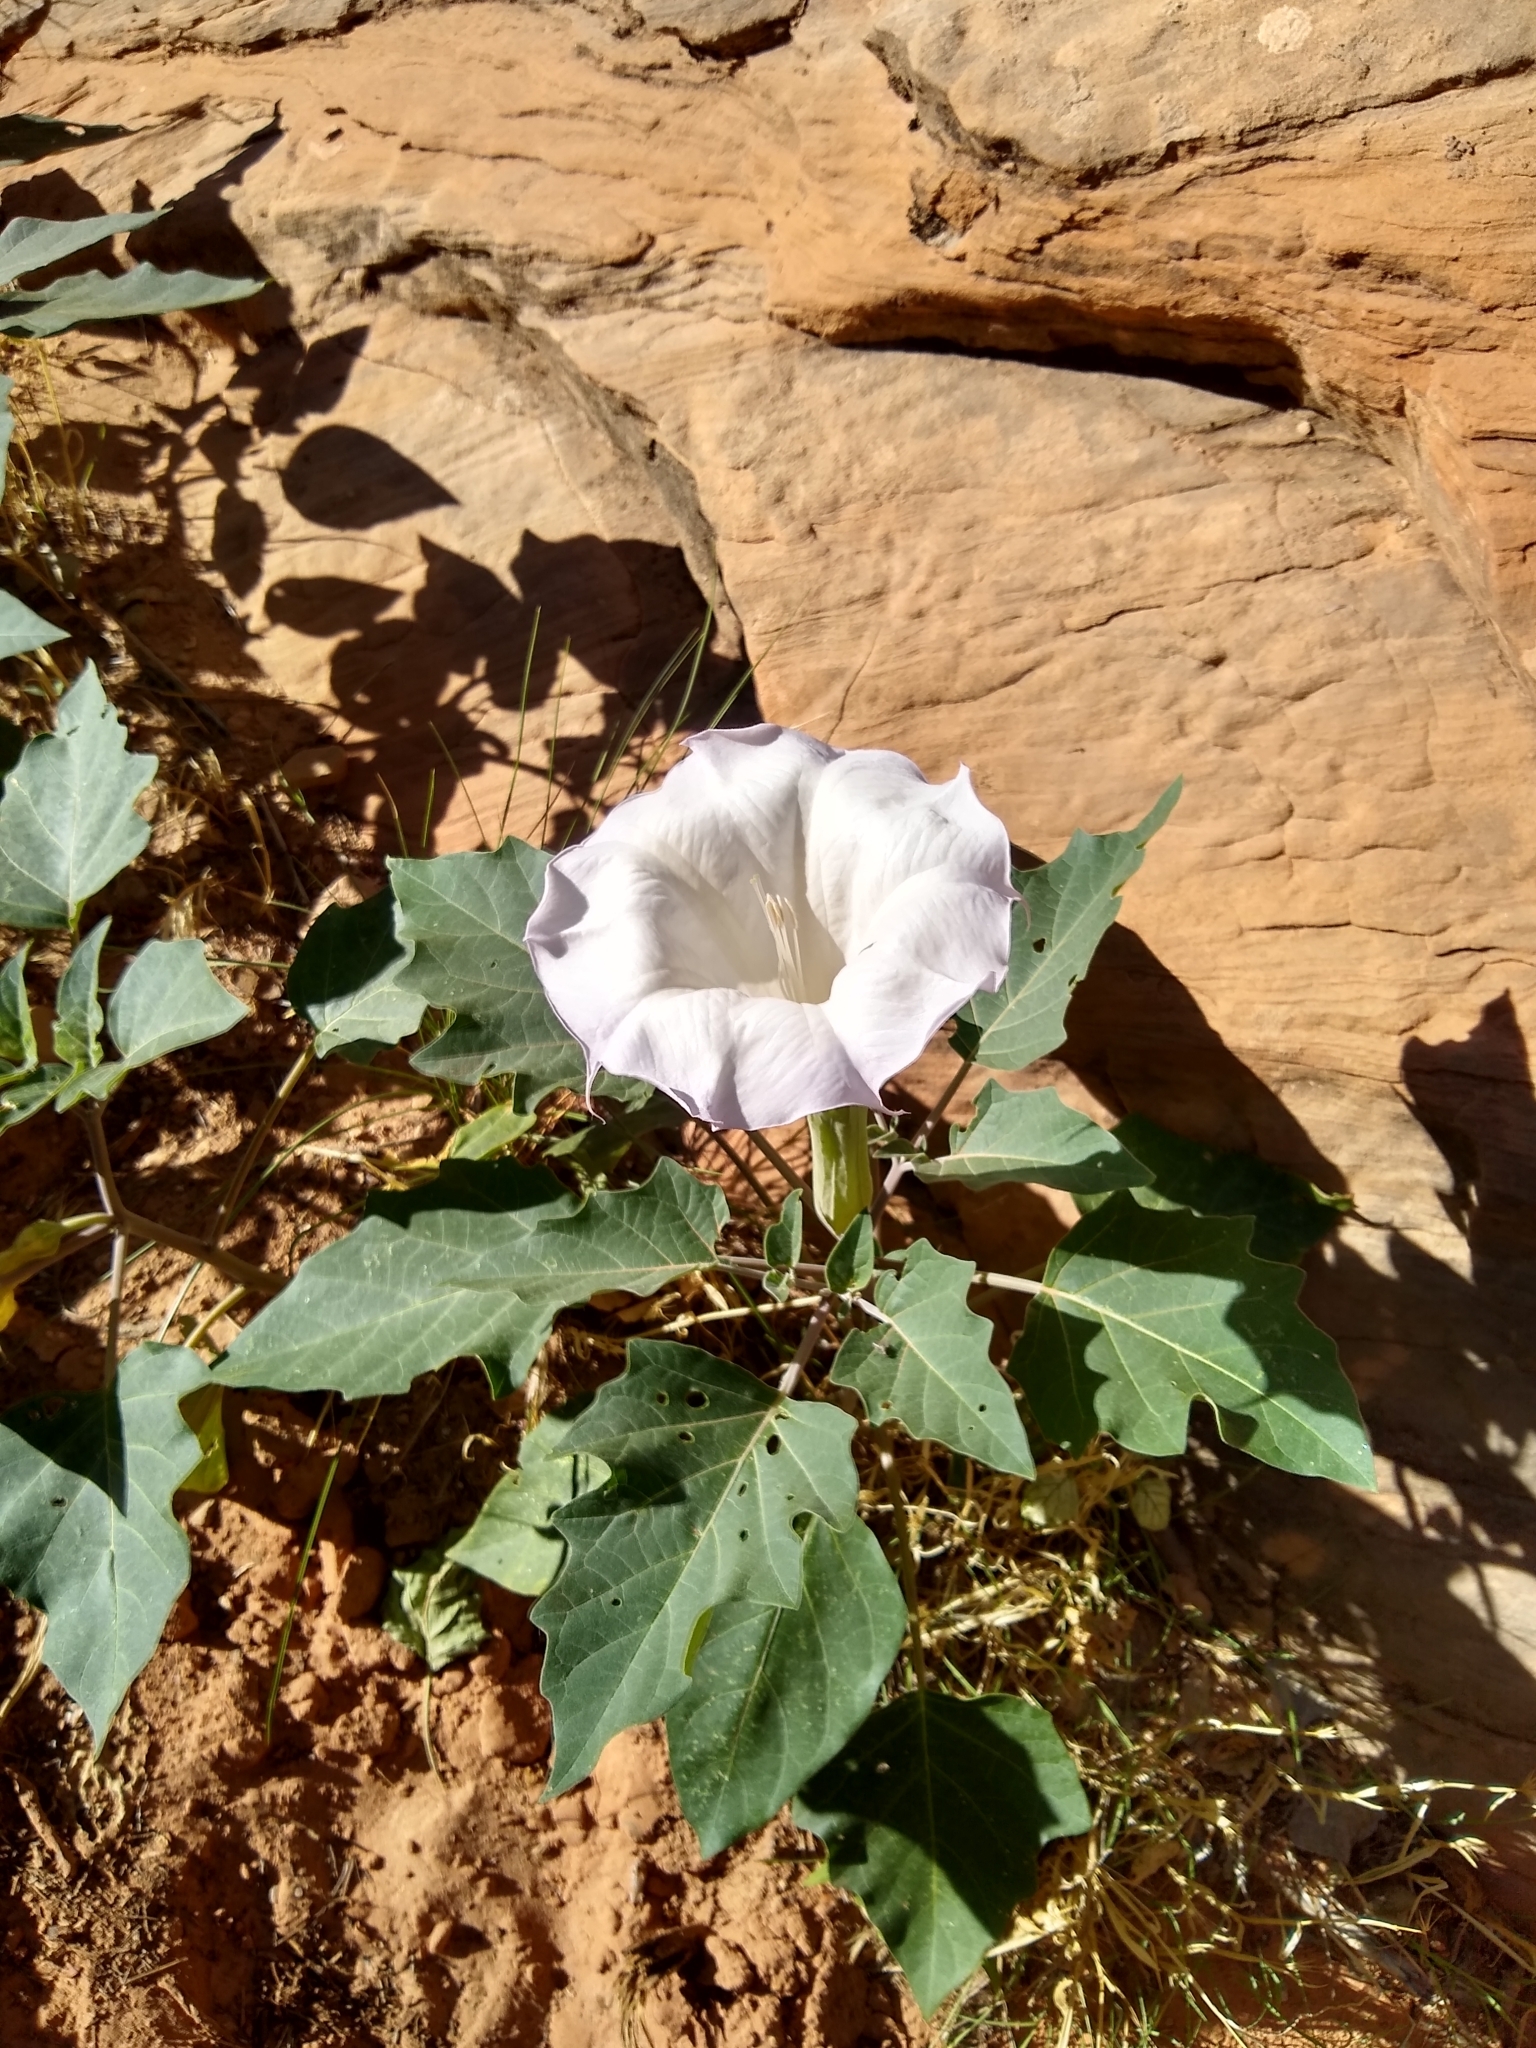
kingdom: Plantae
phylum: Tracheophyta
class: Magnoliopsida
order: Solanales
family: Solanaceae
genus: Datura
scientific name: Datura wrightii
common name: Sacred thorn-apple
